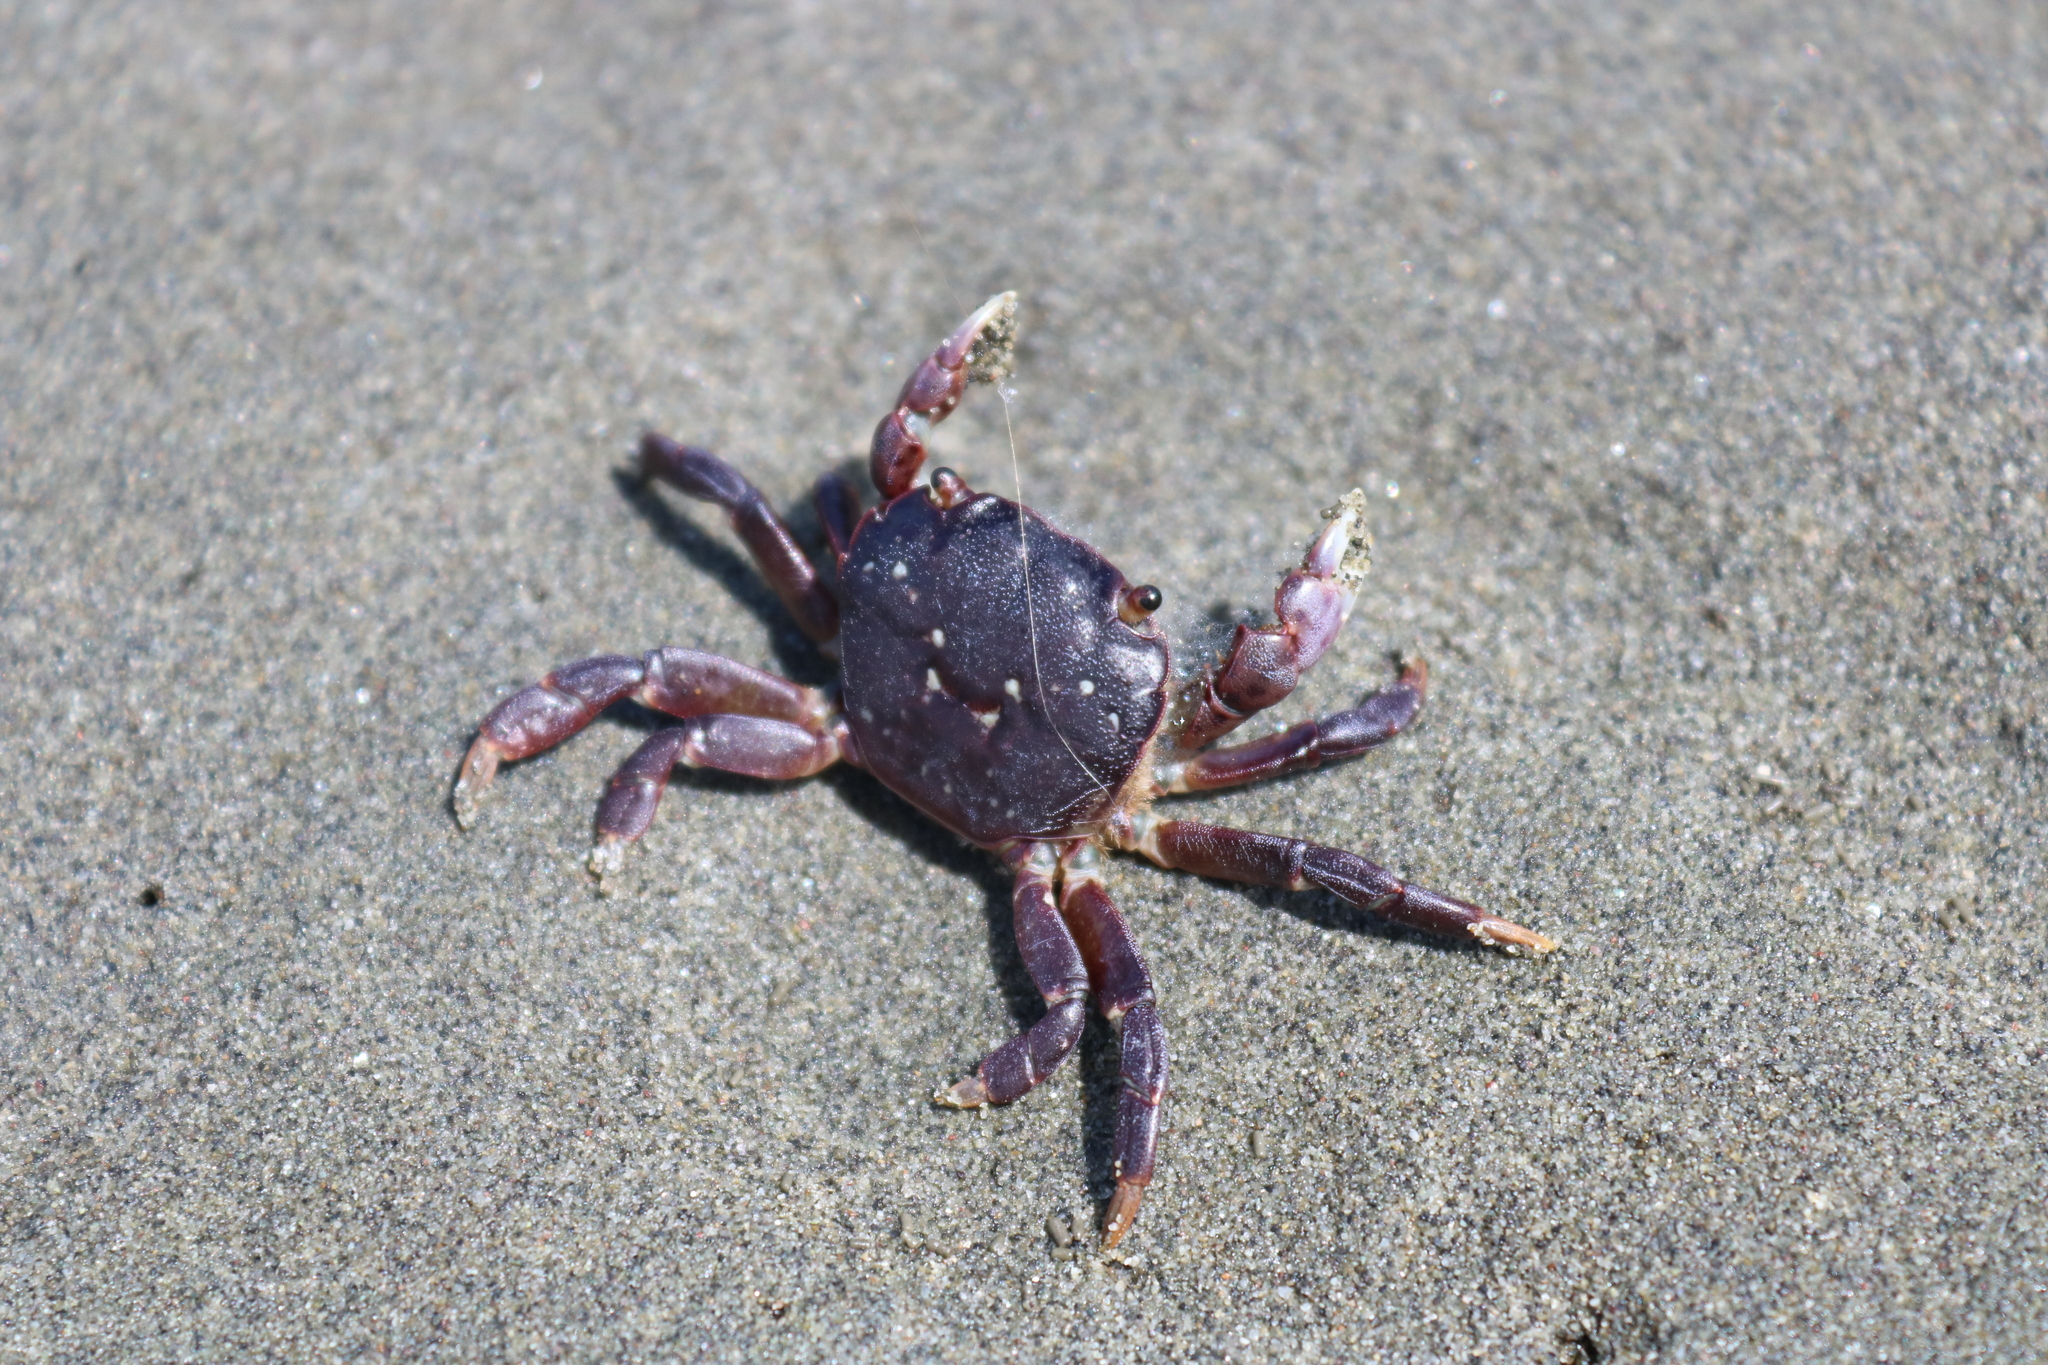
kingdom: Animalia
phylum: Arthropoda
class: Malacostraca
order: Decapoda
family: Varunidae
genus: Hemigrapsus
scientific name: Hemigrapsus nudus
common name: Purple shore crab
